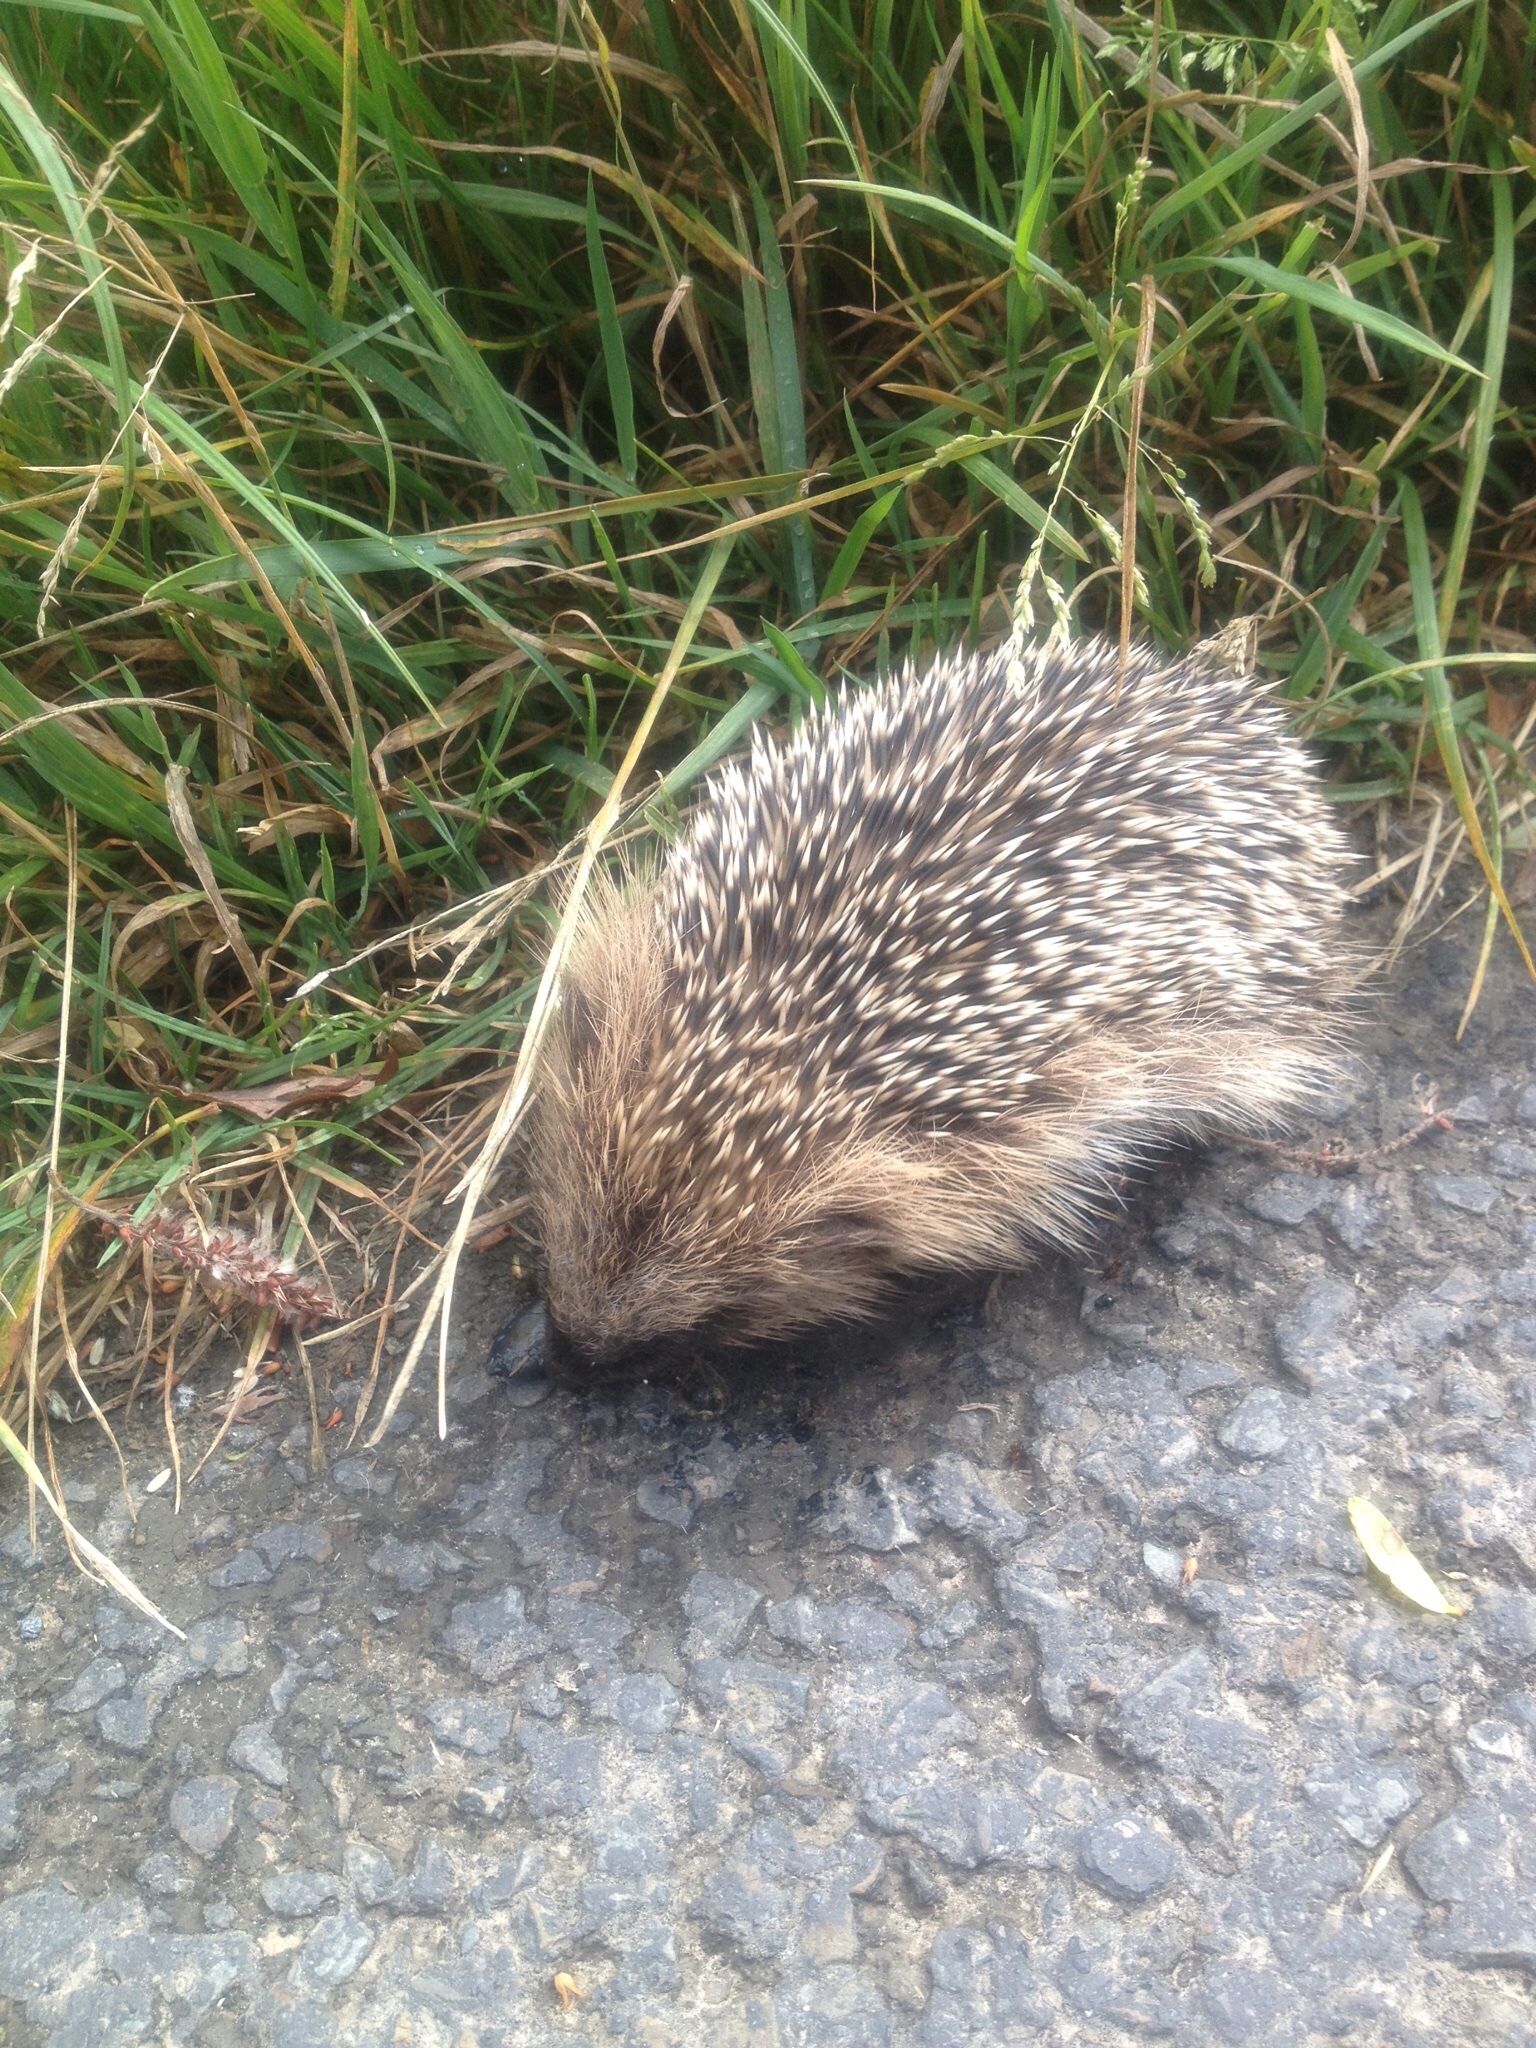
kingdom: Animalia
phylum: Chordata
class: Mammalia
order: Erinaceomorpha
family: Erinaceidae
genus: Erinaceus
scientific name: Erinaceus europaeus
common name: West european hedgehog
